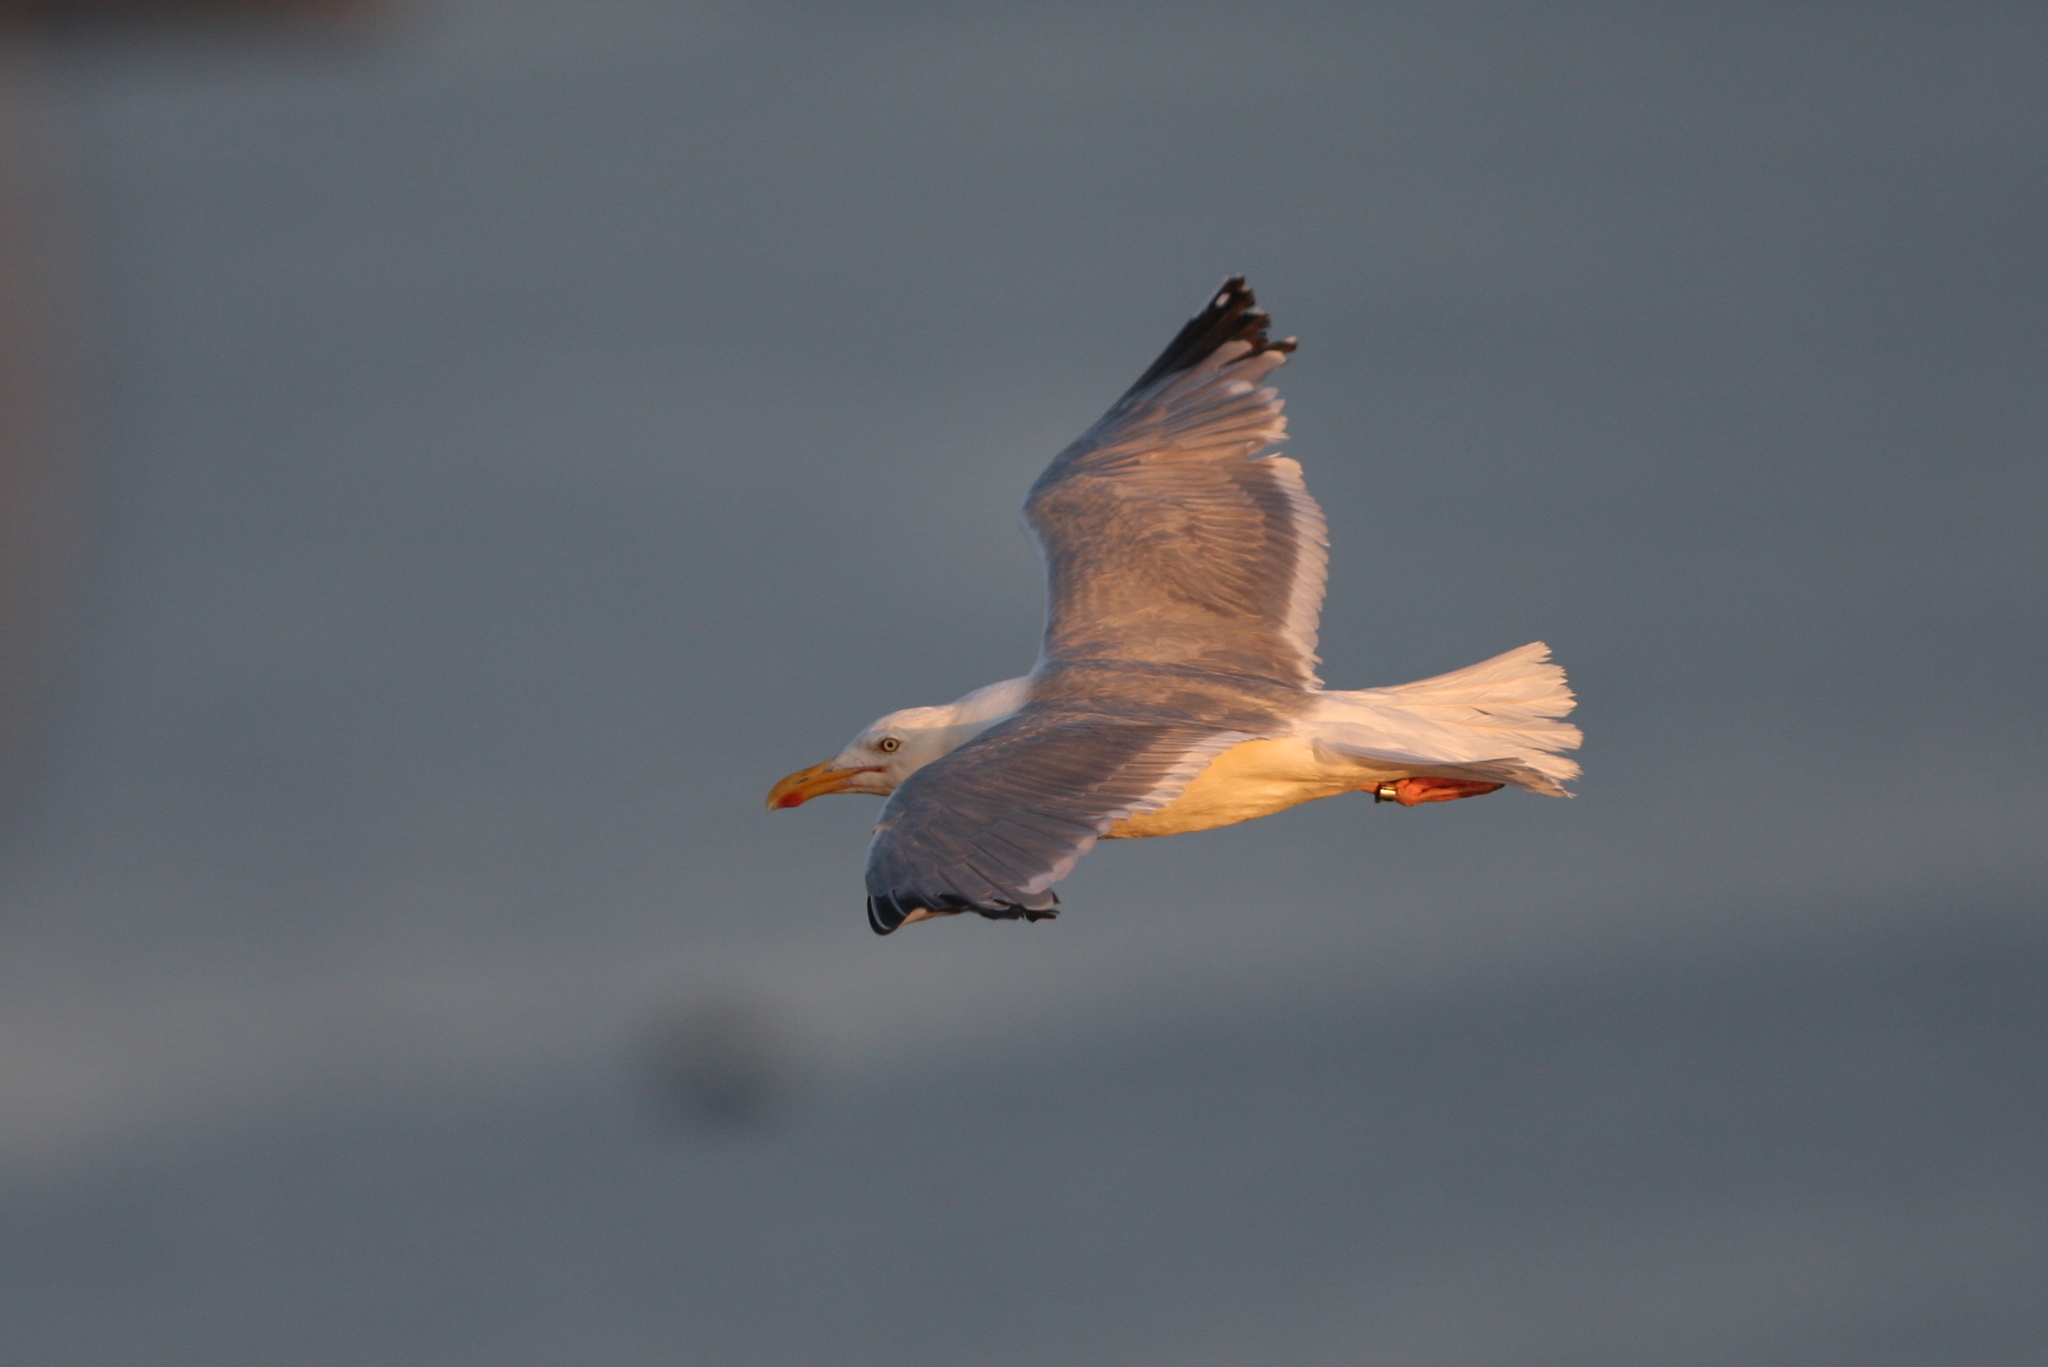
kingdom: Animalia
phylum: Chordata
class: Aves
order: Charadriiformes
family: Laridae
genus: Larus
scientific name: Larus argentatus
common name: Herring gull
